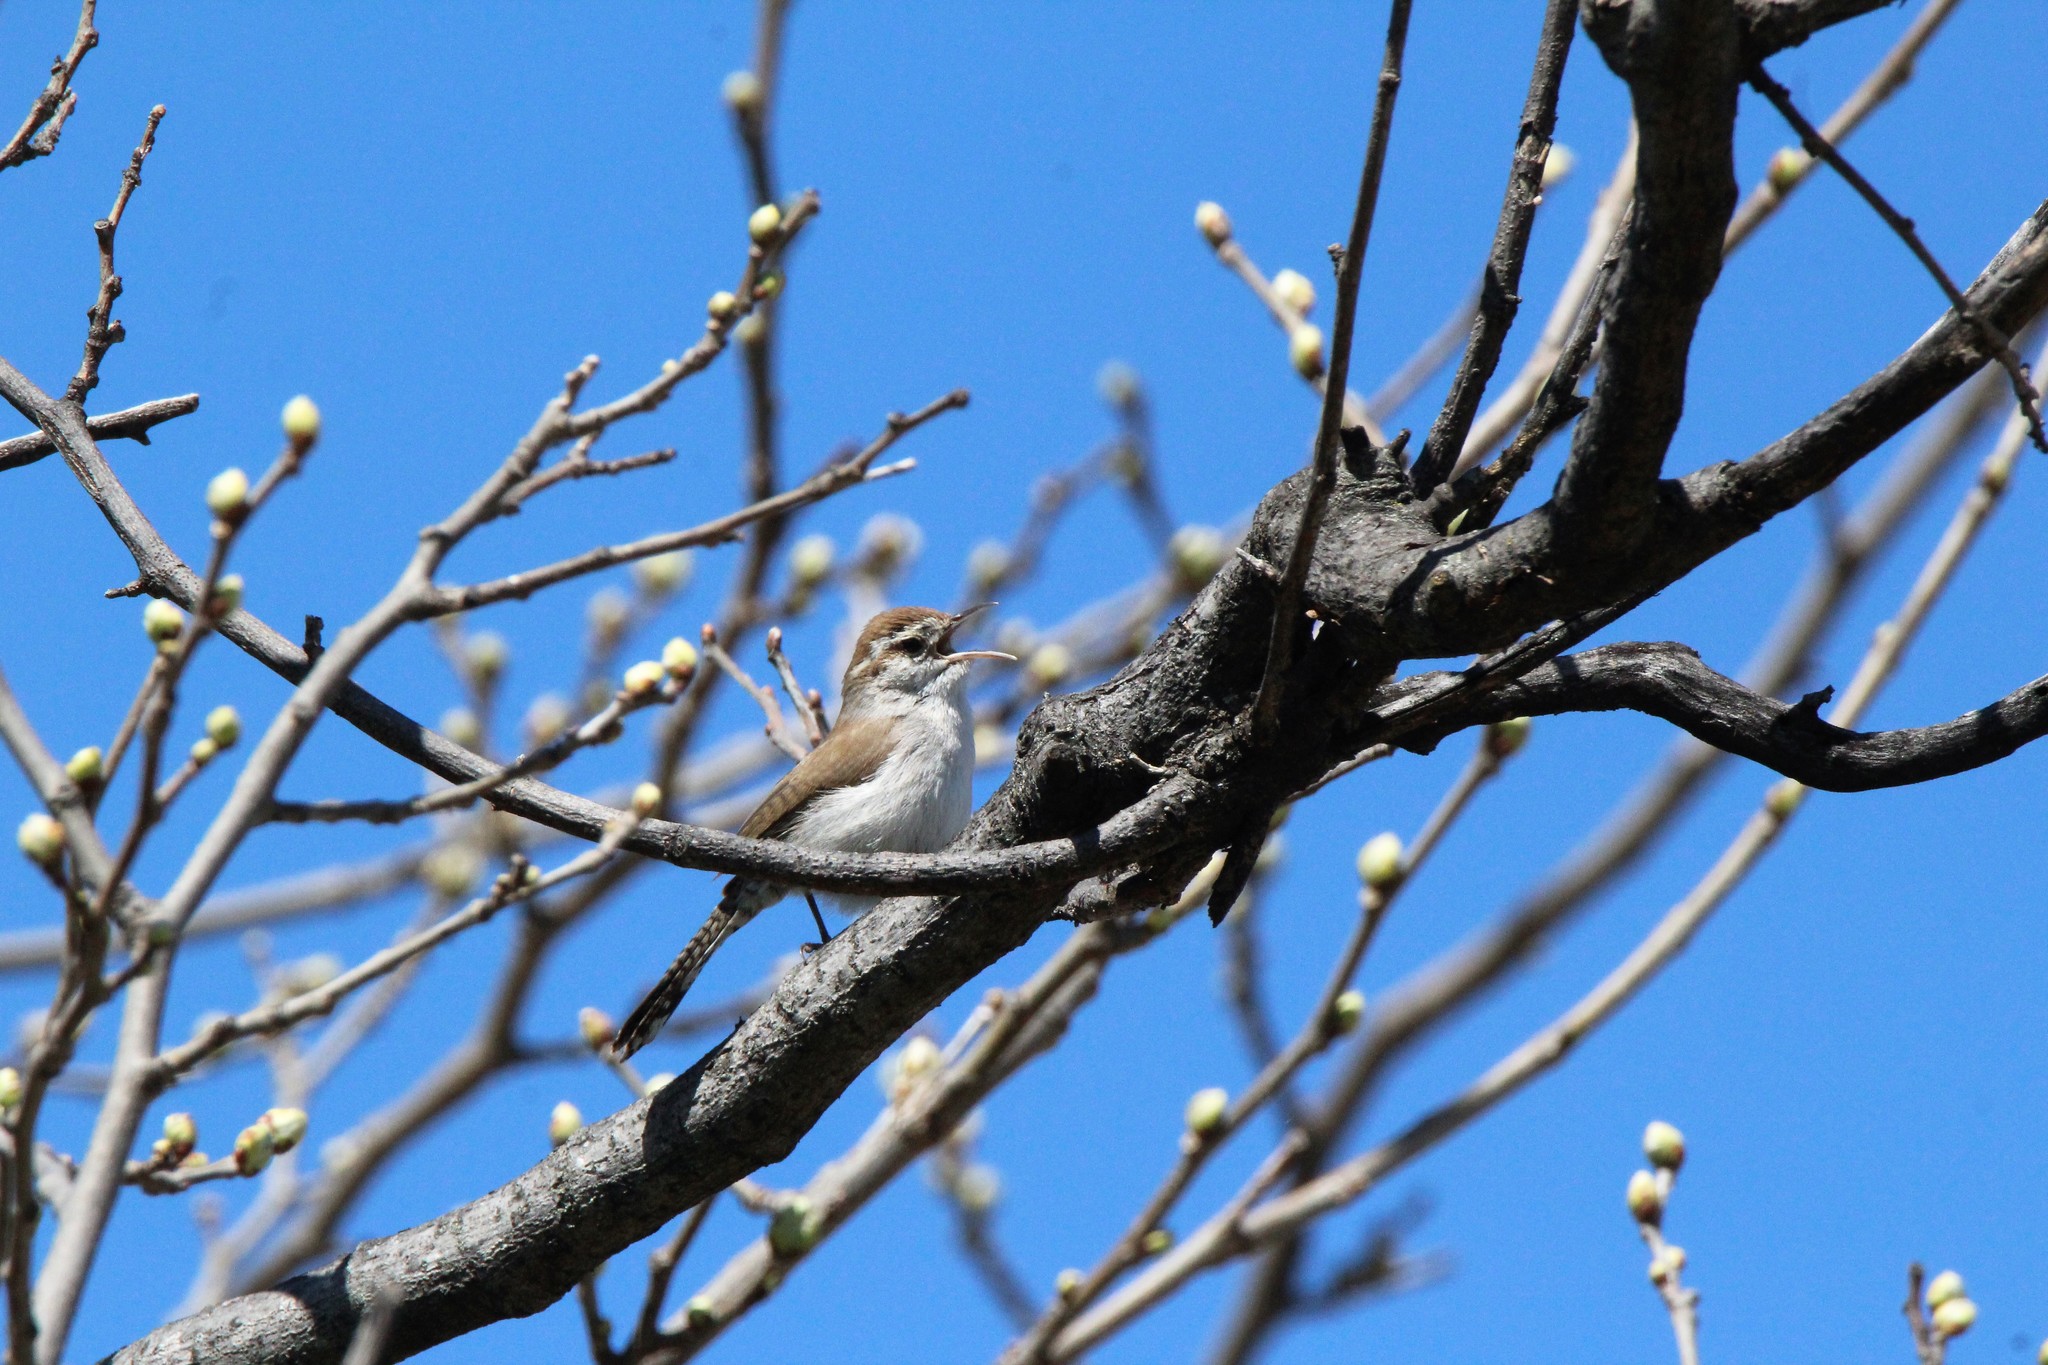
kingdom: Animalia
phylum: Chordata
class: Aves
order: Passeriformes
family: Troglodytidae
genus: Thryomanes
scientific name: Thryomanes bewickii
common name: Bewick's wren
